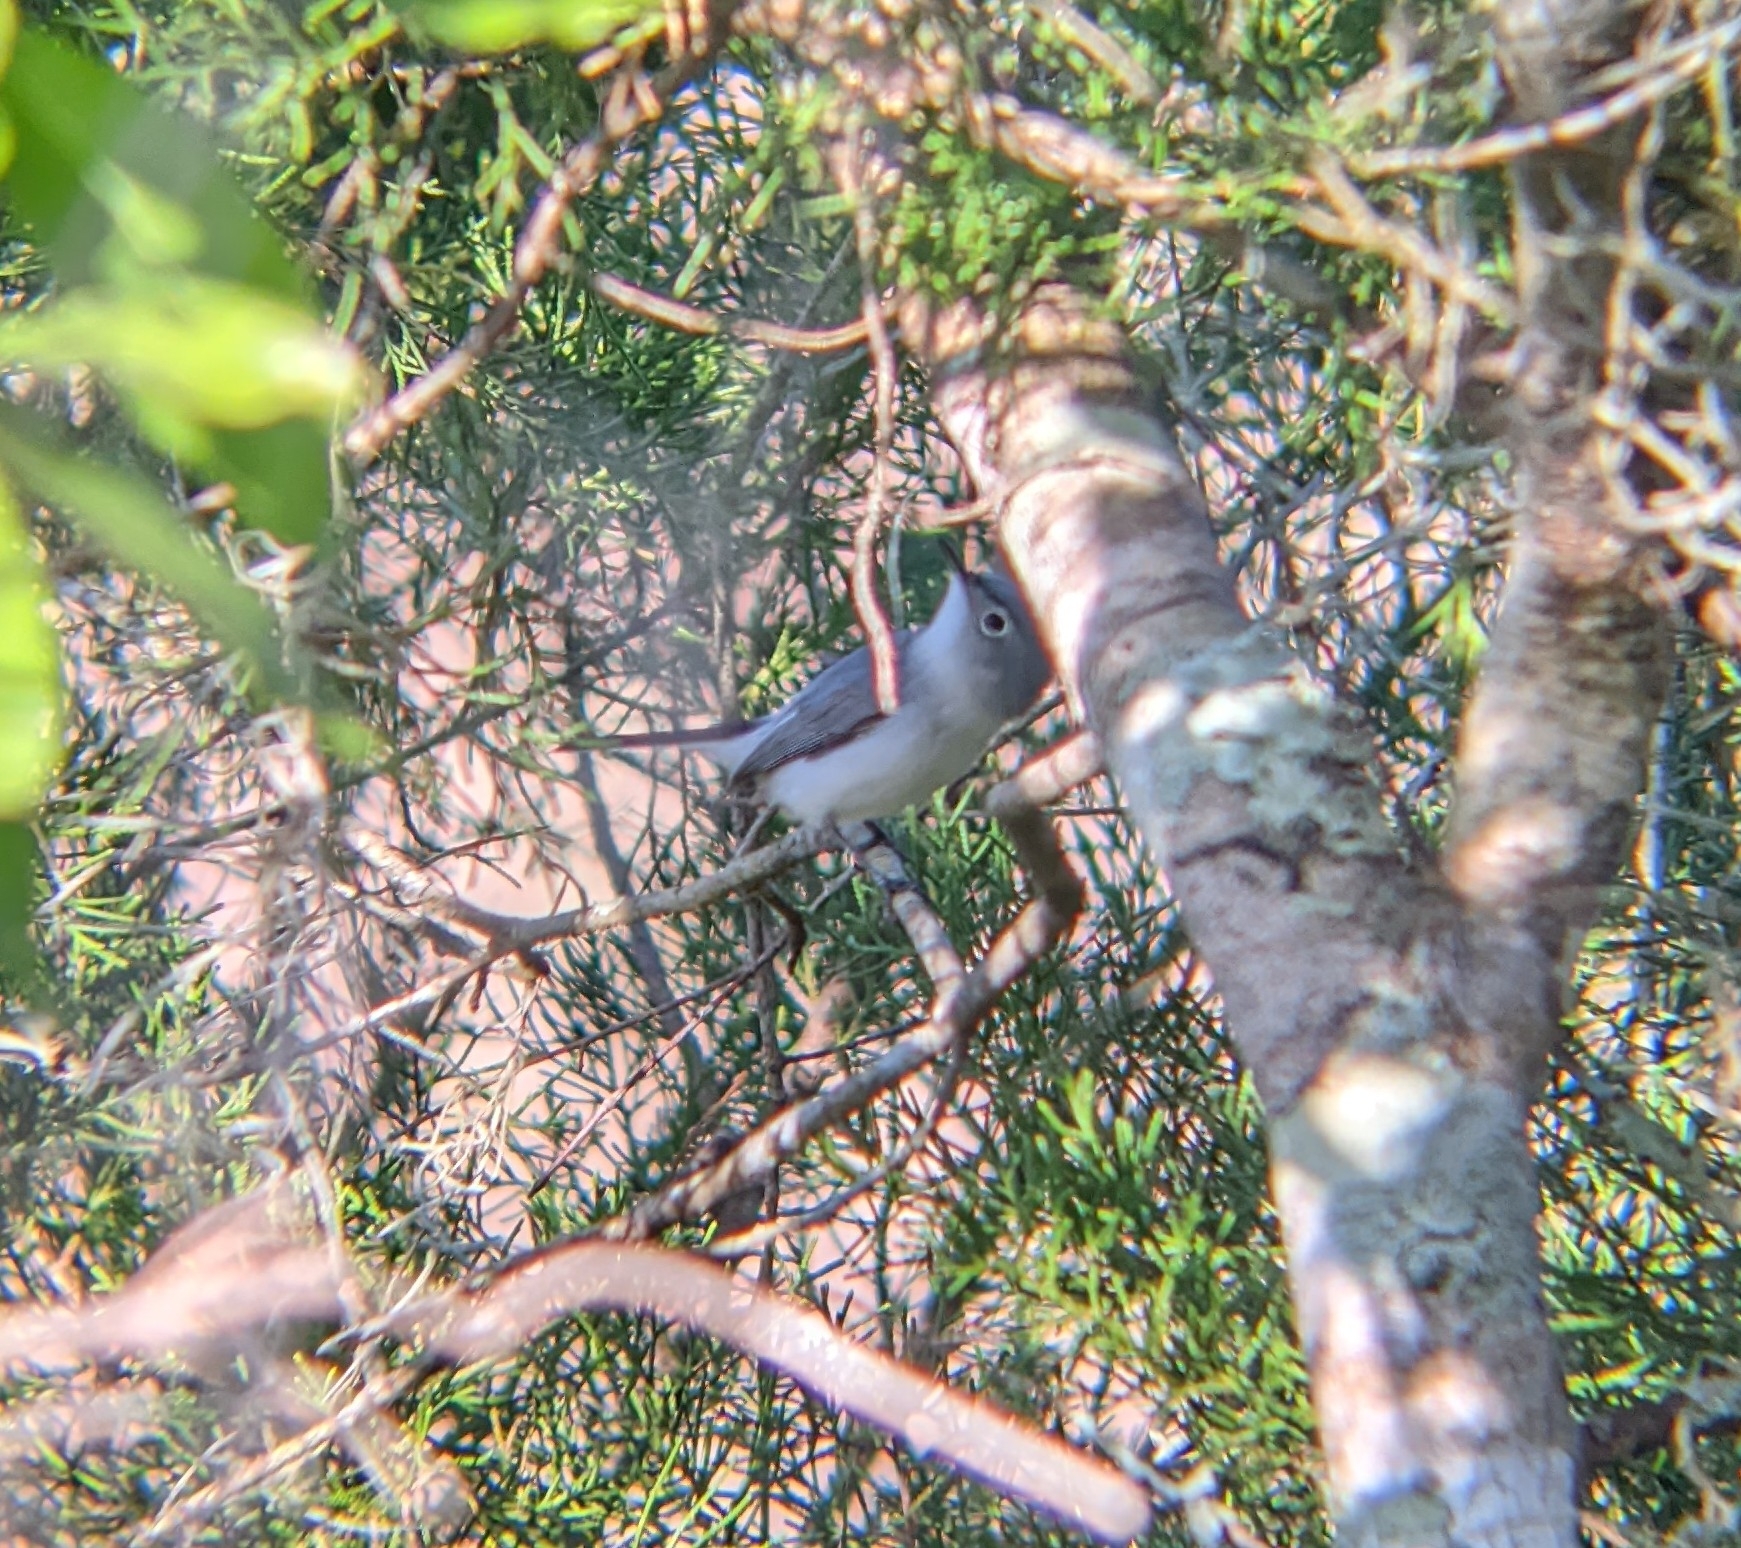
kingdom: Animalia
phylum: Chordata
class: Aves
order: Passeriformes
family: Polioptilidae
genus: Polioptila
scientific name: Polioptila caerulea
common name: Blue-gray gnatcatcher
